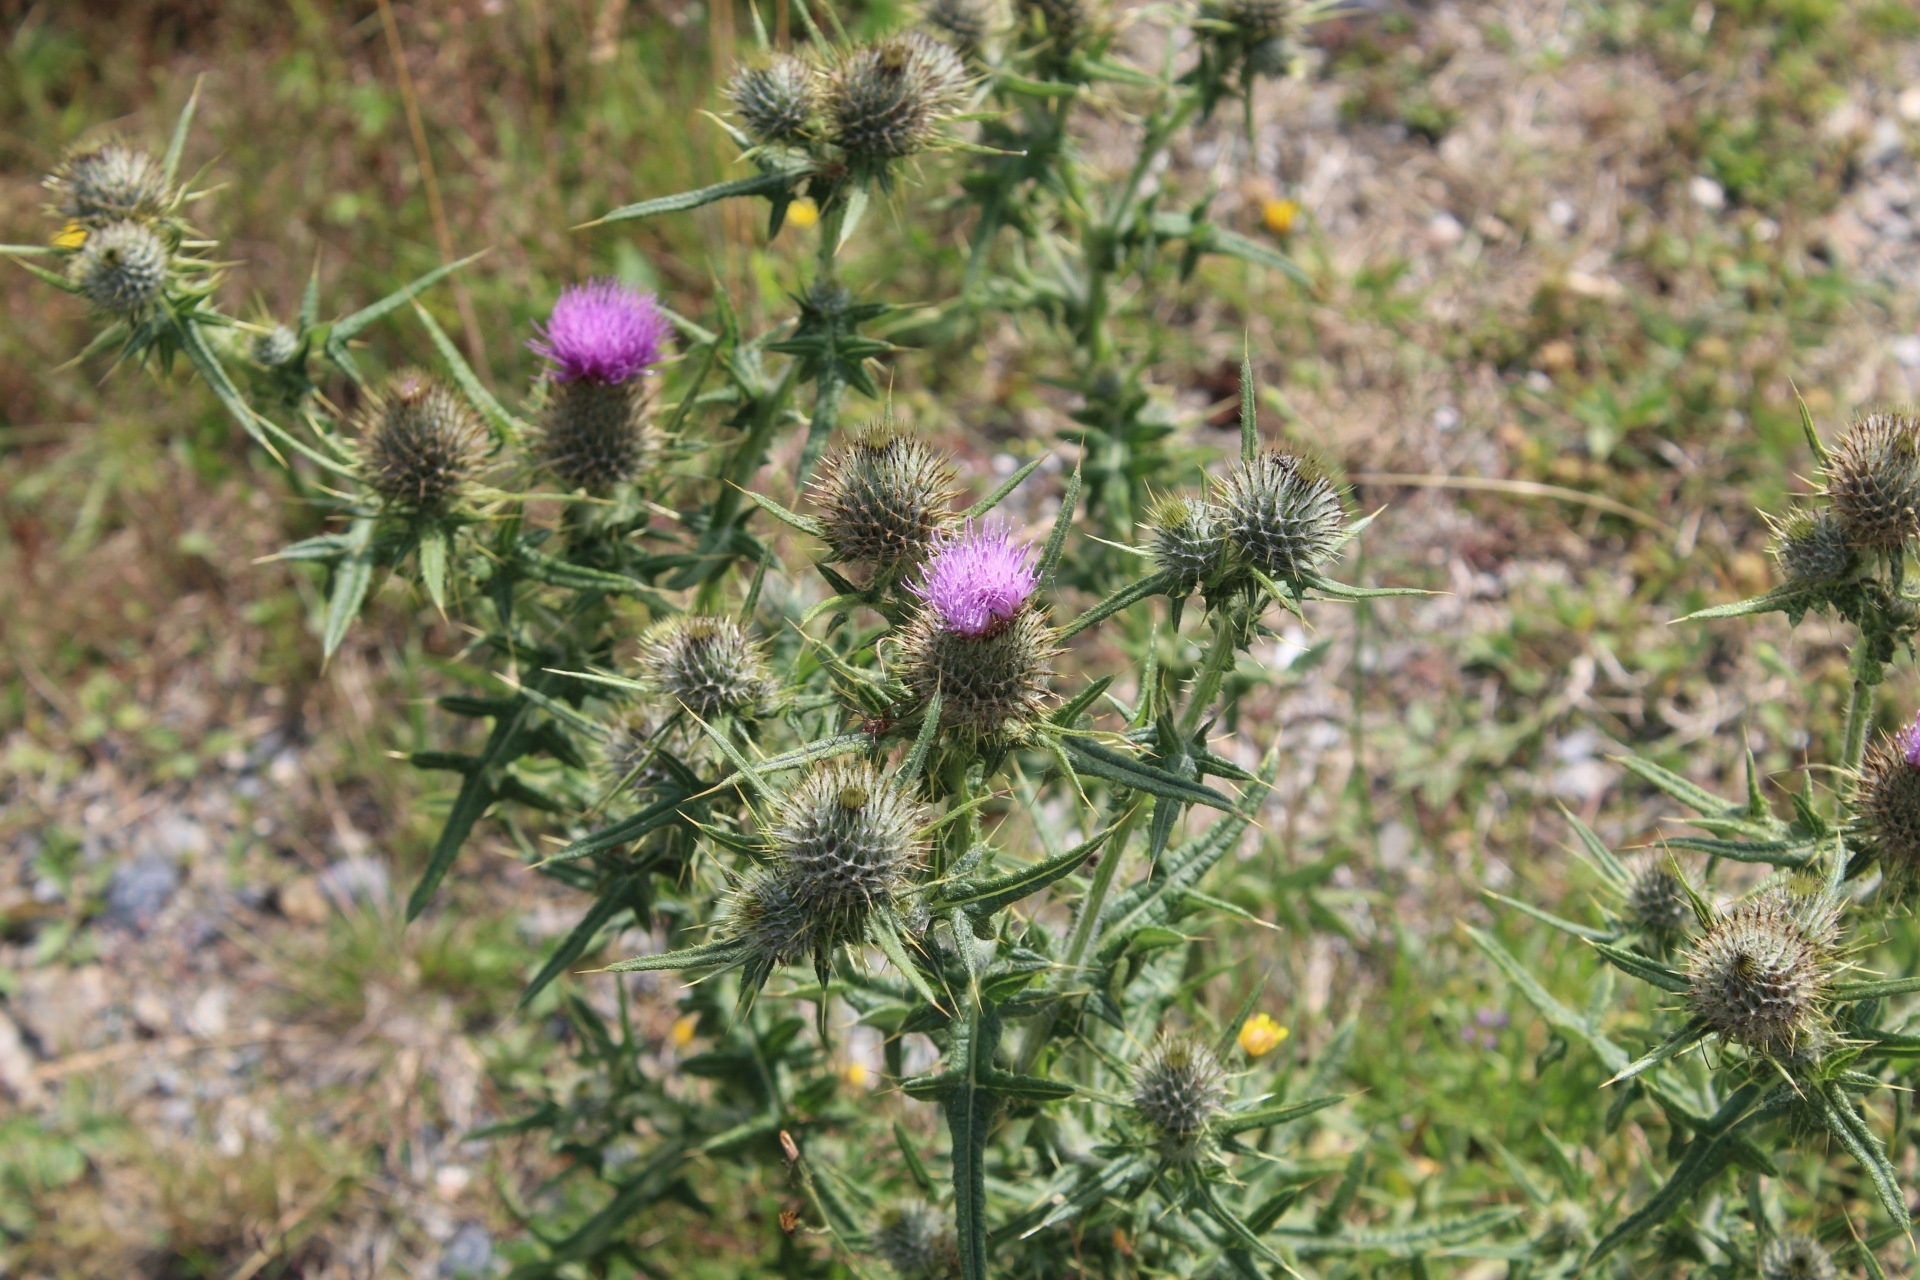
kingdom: Plantae
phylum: Tracheophyta
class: Magnoliopsida
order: Asterales
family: Asteraceae
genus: Cirsium
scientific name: Cirsium vulgare
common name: Bull thistle
